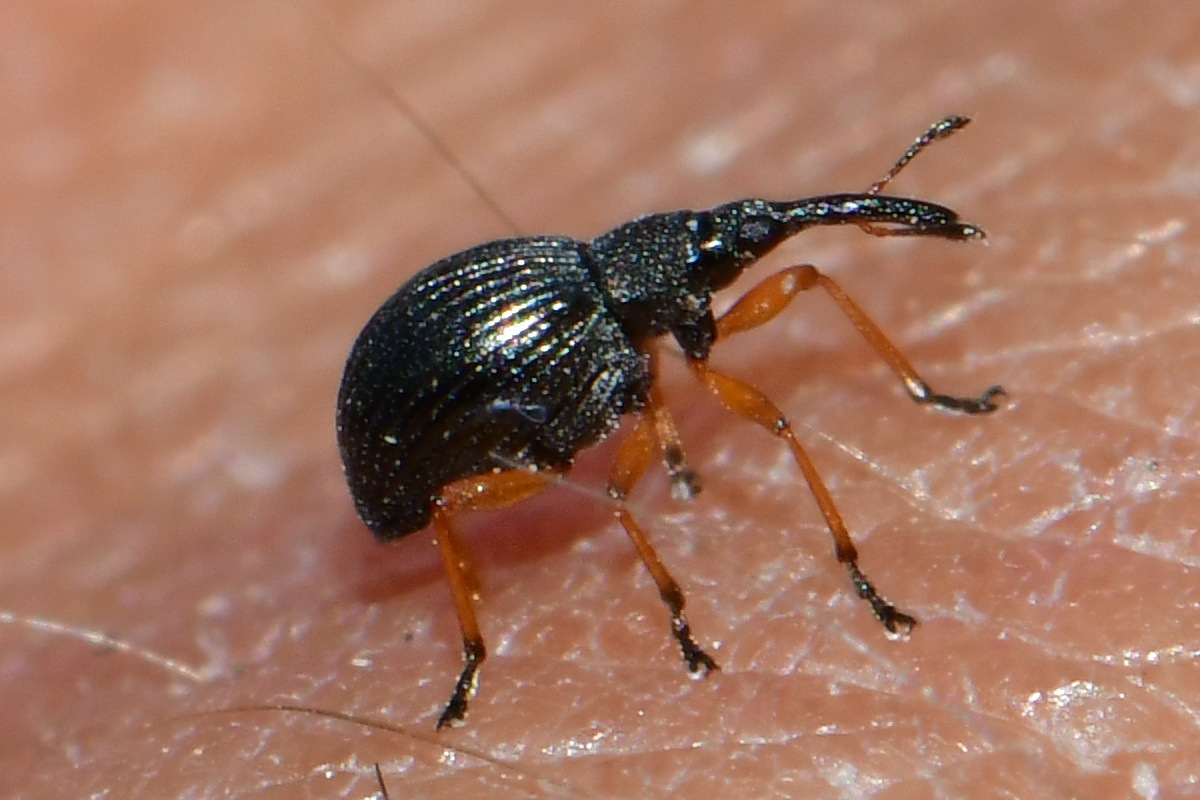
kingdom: Animalia
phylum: Arthropoda
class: Insecta
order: Coleoptera
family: Apionidae
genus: Protapion
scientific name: Protapion fulvipes
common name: White clover seed weevil
